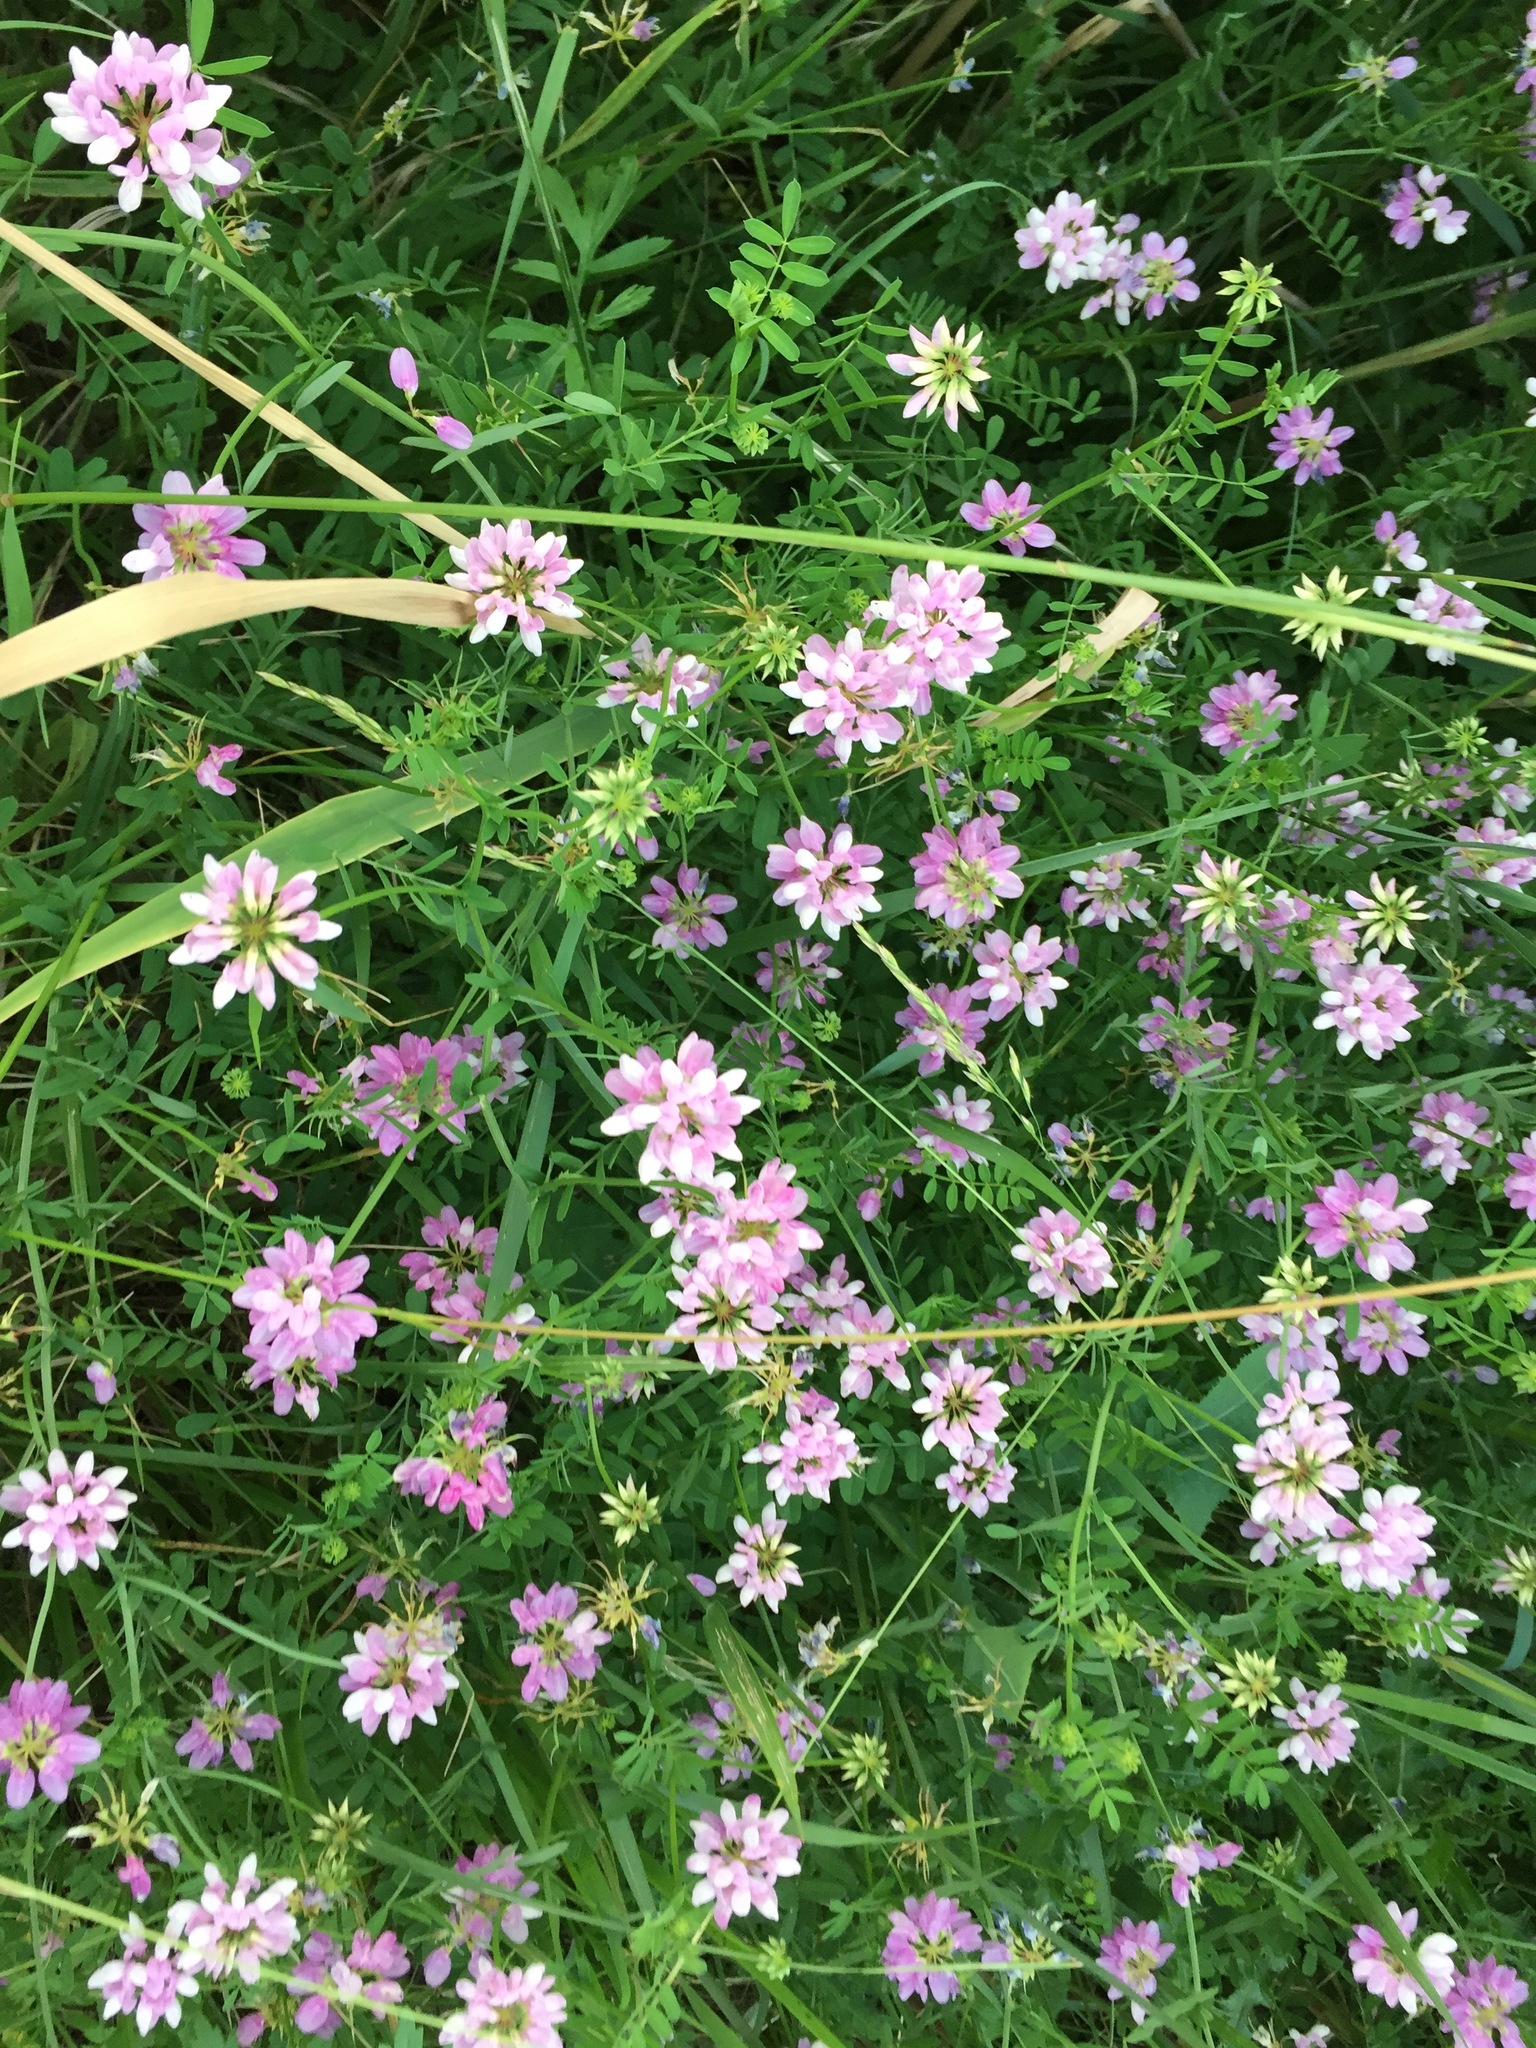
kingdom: Plantae
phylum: Tracheophyta
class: Magnoliopsida
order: Fabales
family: Fabaceae
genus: Coronilla
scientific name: Coronilla varia
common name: Crownvetch
